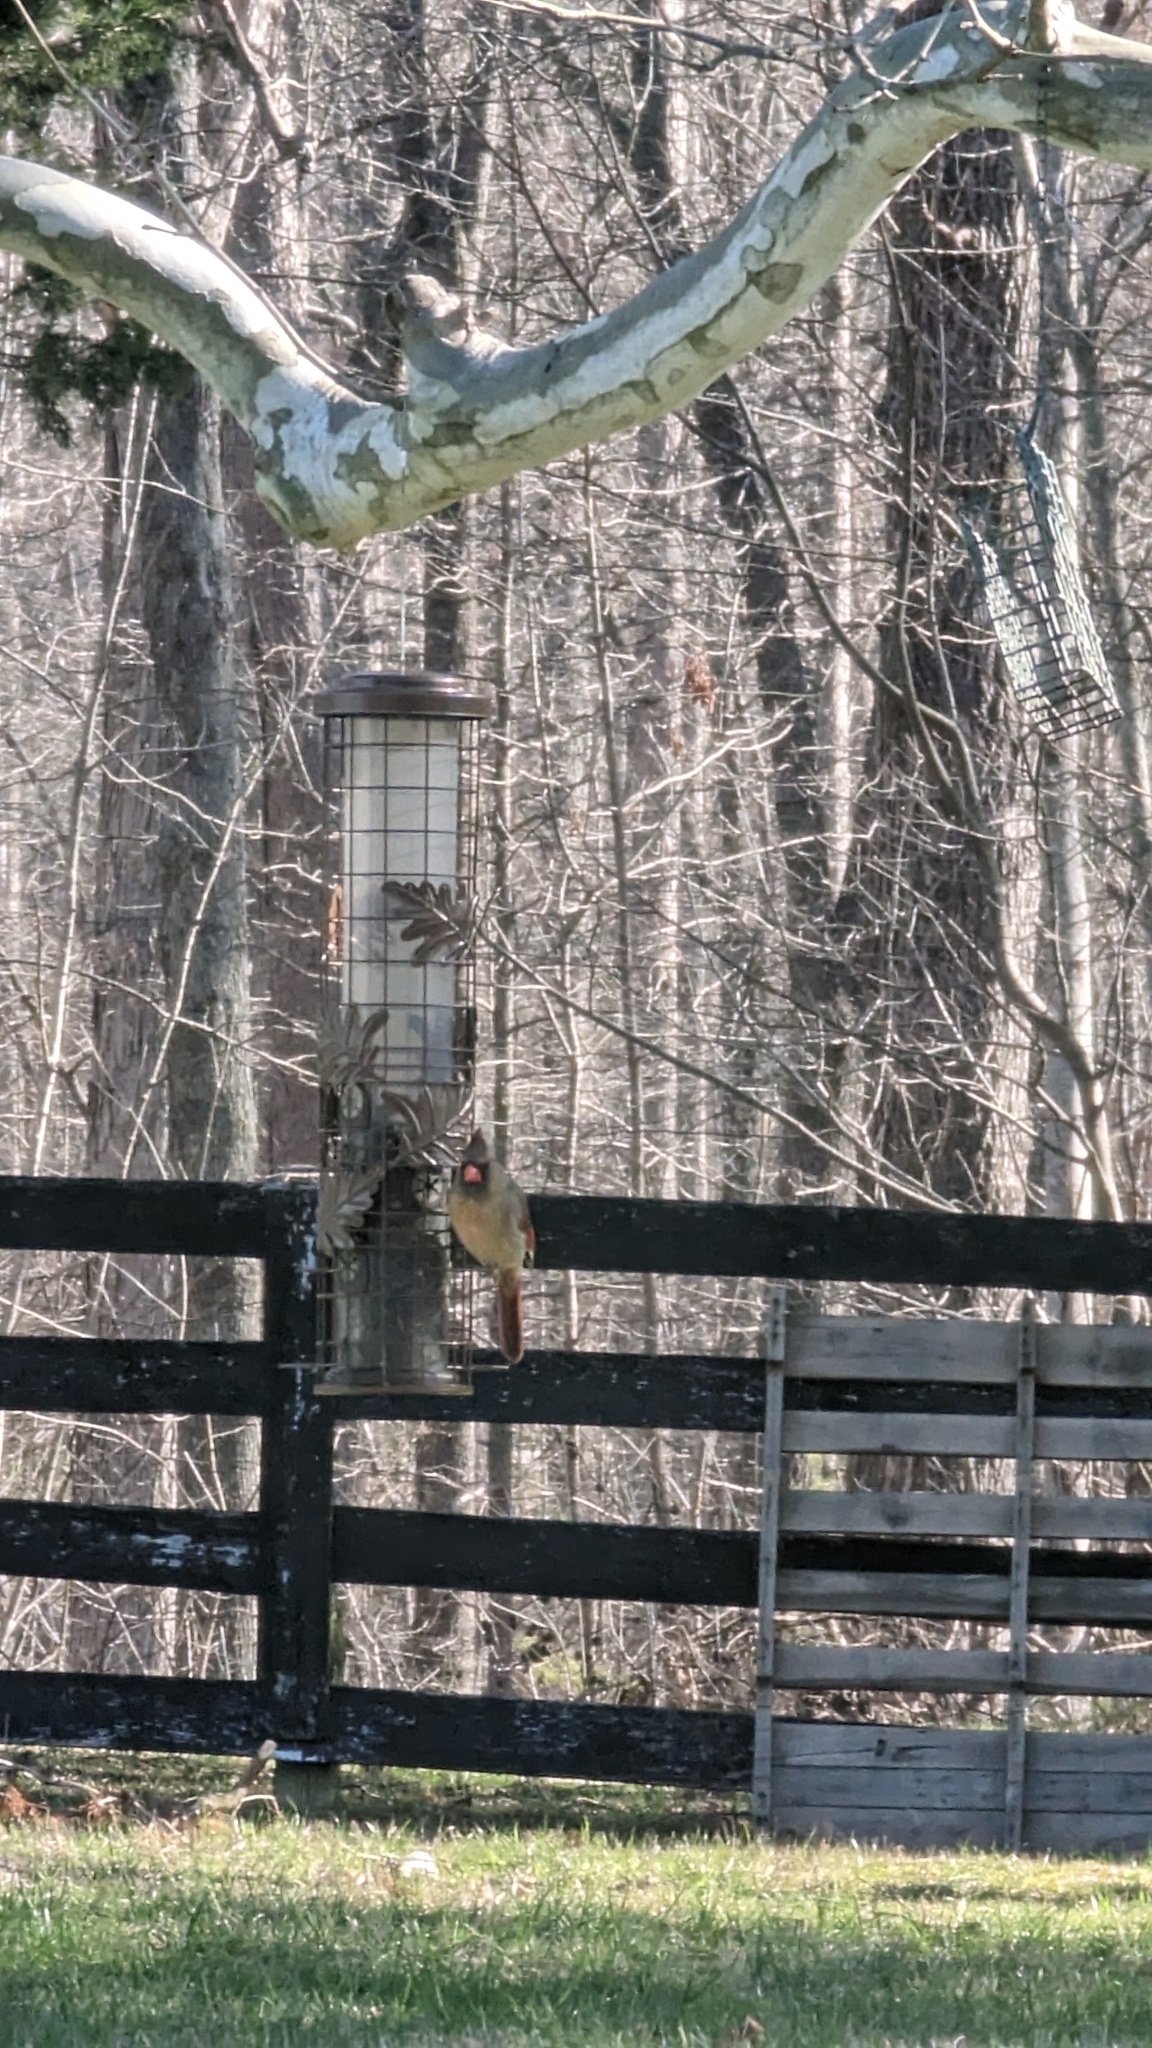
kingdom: Animalia
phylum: Chordata
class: Aves
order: Passeriformes
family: Cardinalidae
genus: Cardinalis
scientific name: Cardinalis cardinalis
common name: Northern cardinal
